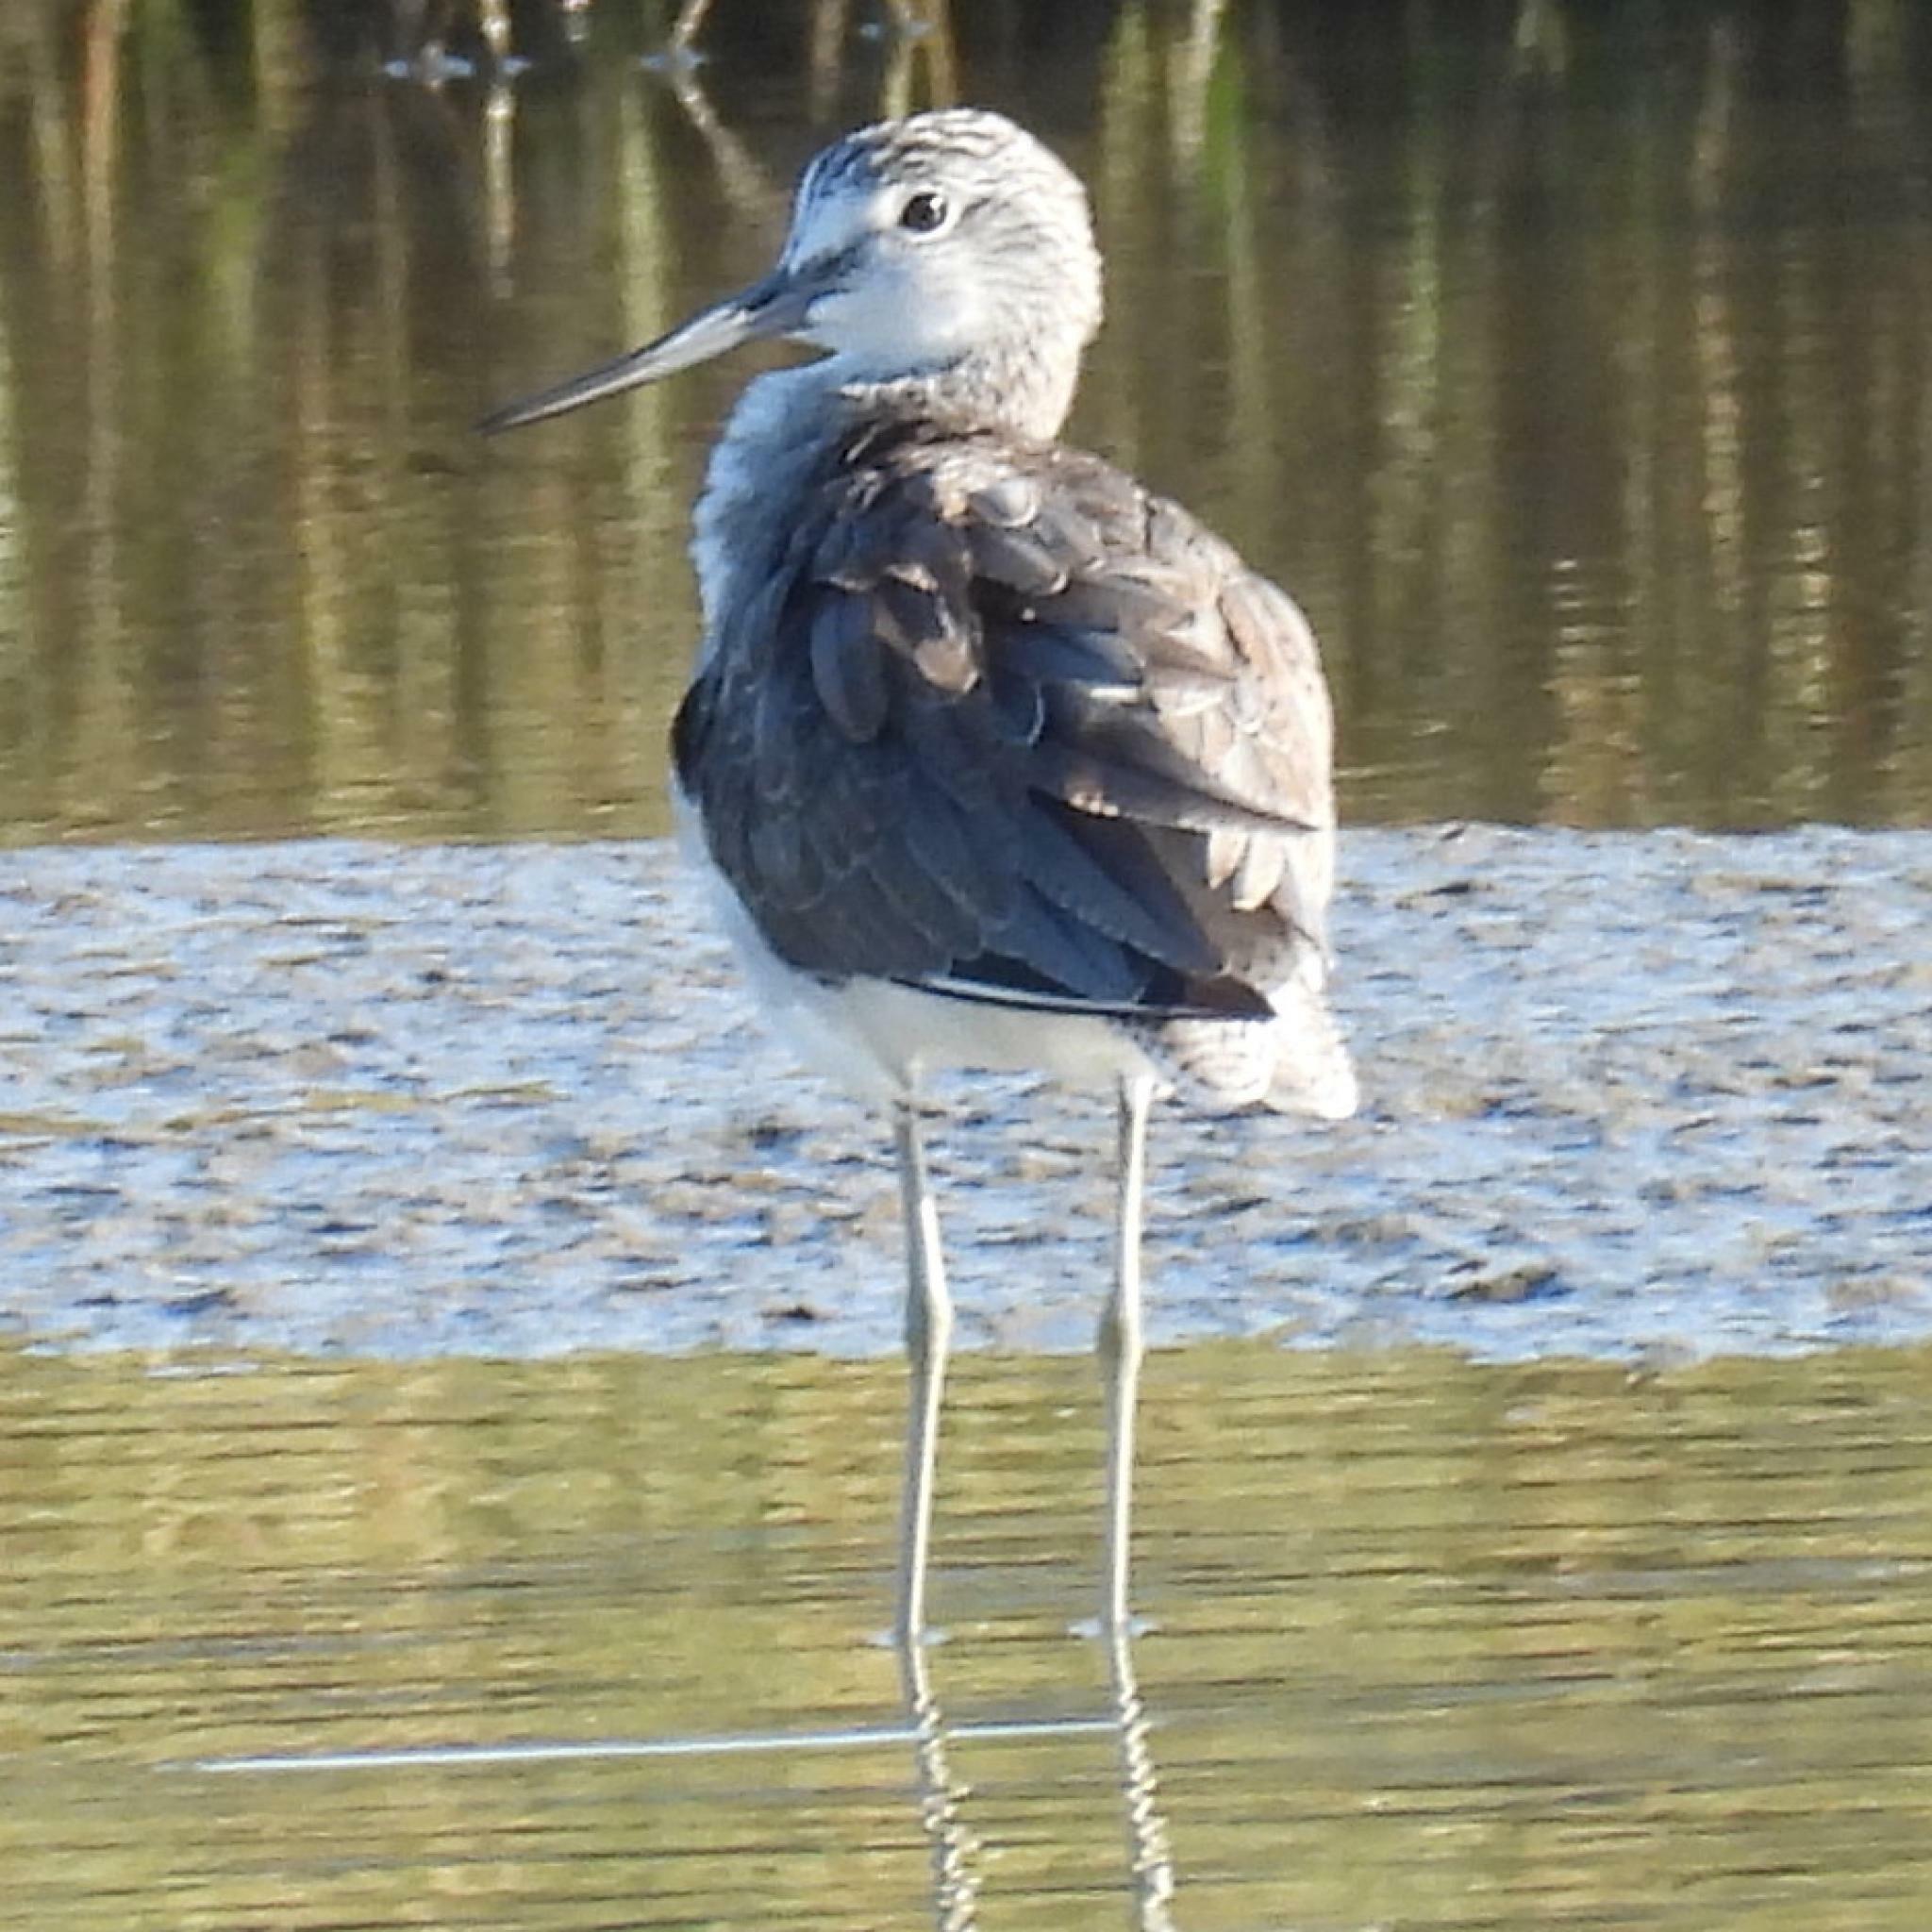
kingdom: Animalia
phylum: Chordata
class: Aves
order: Charadriiformes
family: Scolopacidae
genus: Tringa
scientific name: Tringa nebularia
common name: Common greenshank
